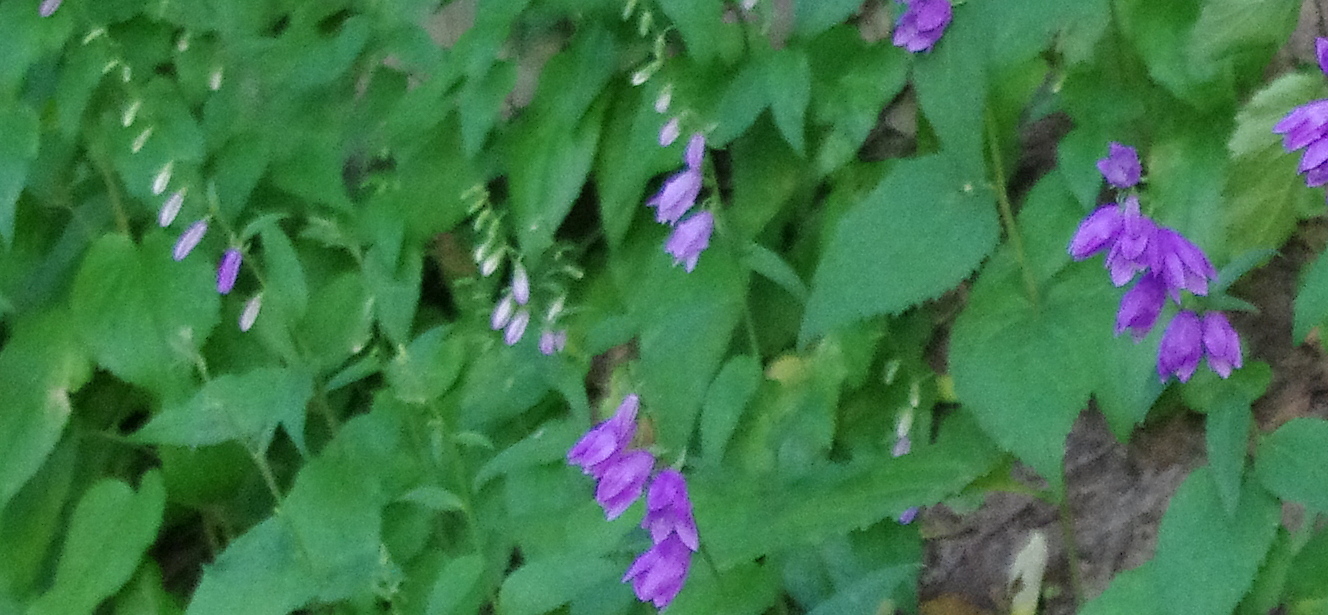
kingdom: Plantae
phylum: Tracheophyta
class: Magnoliopsida
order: Asterales
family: Campanulaceae
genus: Campanula
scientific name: Campanula rapunculoides
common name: Creeping bellflower
